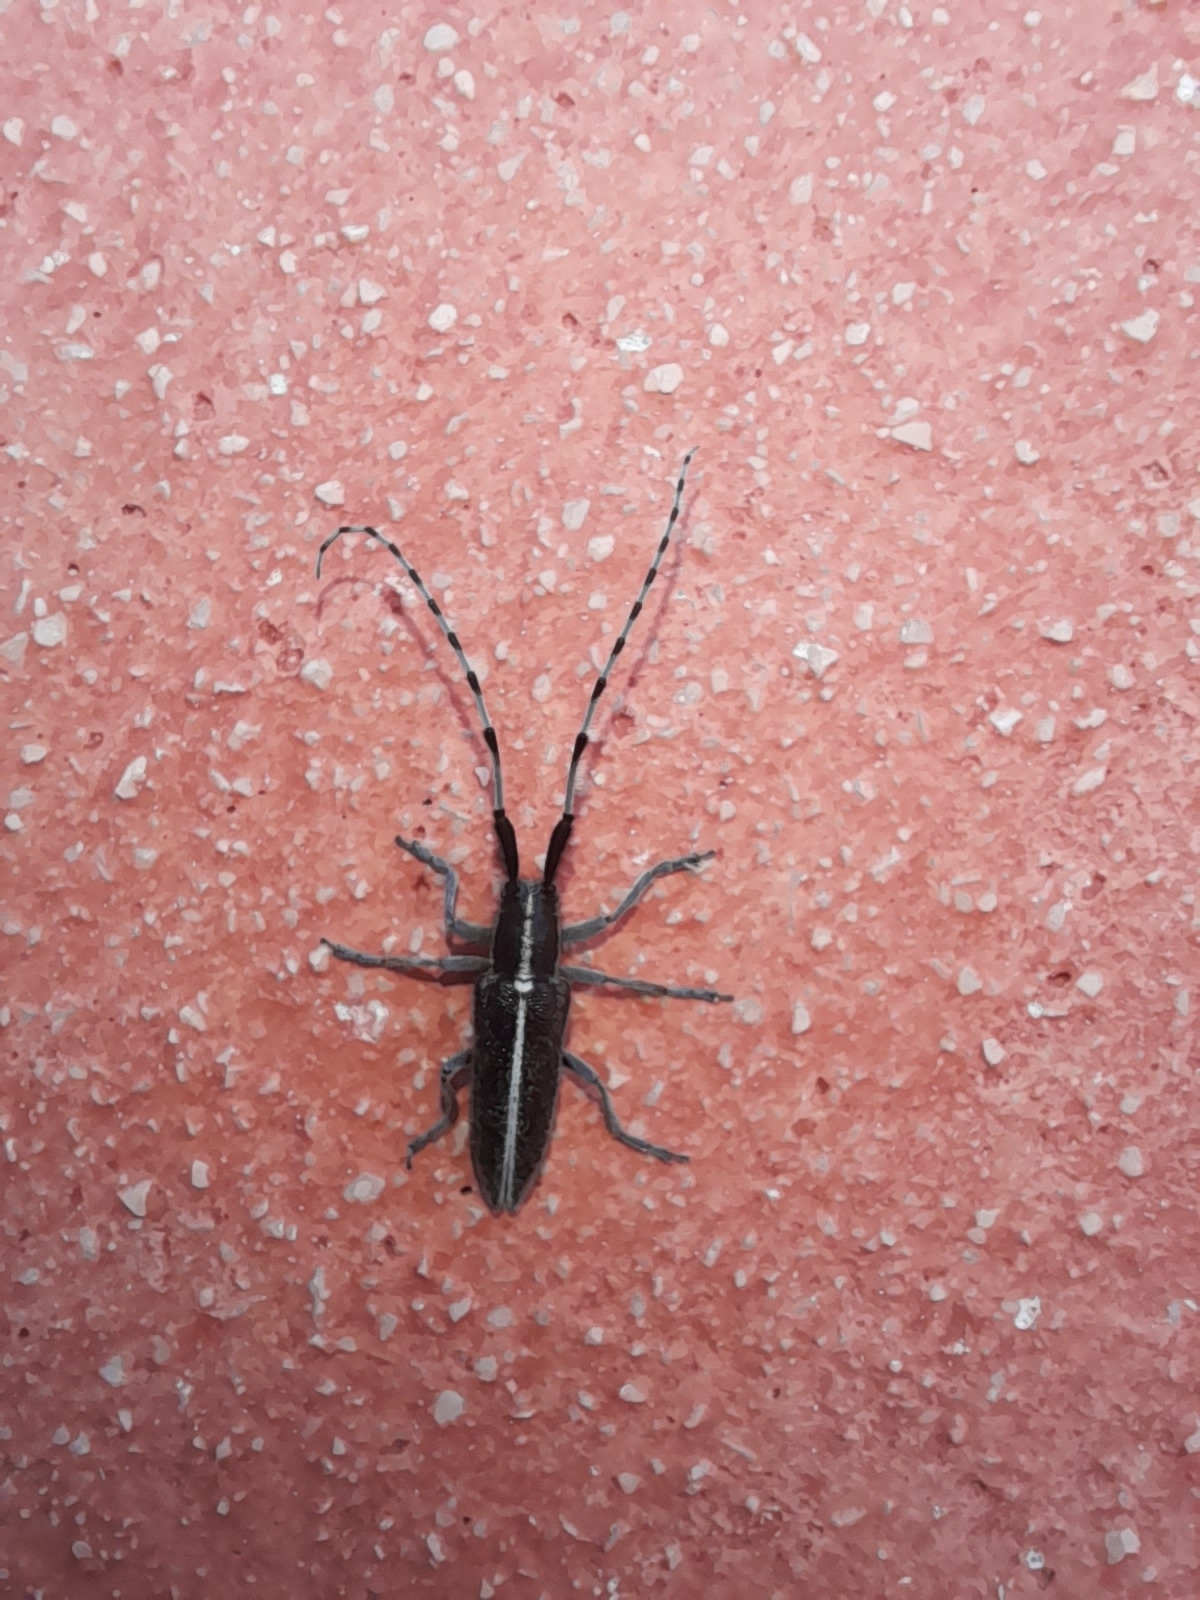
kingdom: Animalia
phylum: Arthropoda
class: Insecta
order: Coleoptera
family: Cerambycidae
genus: Agapanthia
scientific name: Agapanthia suturalis
